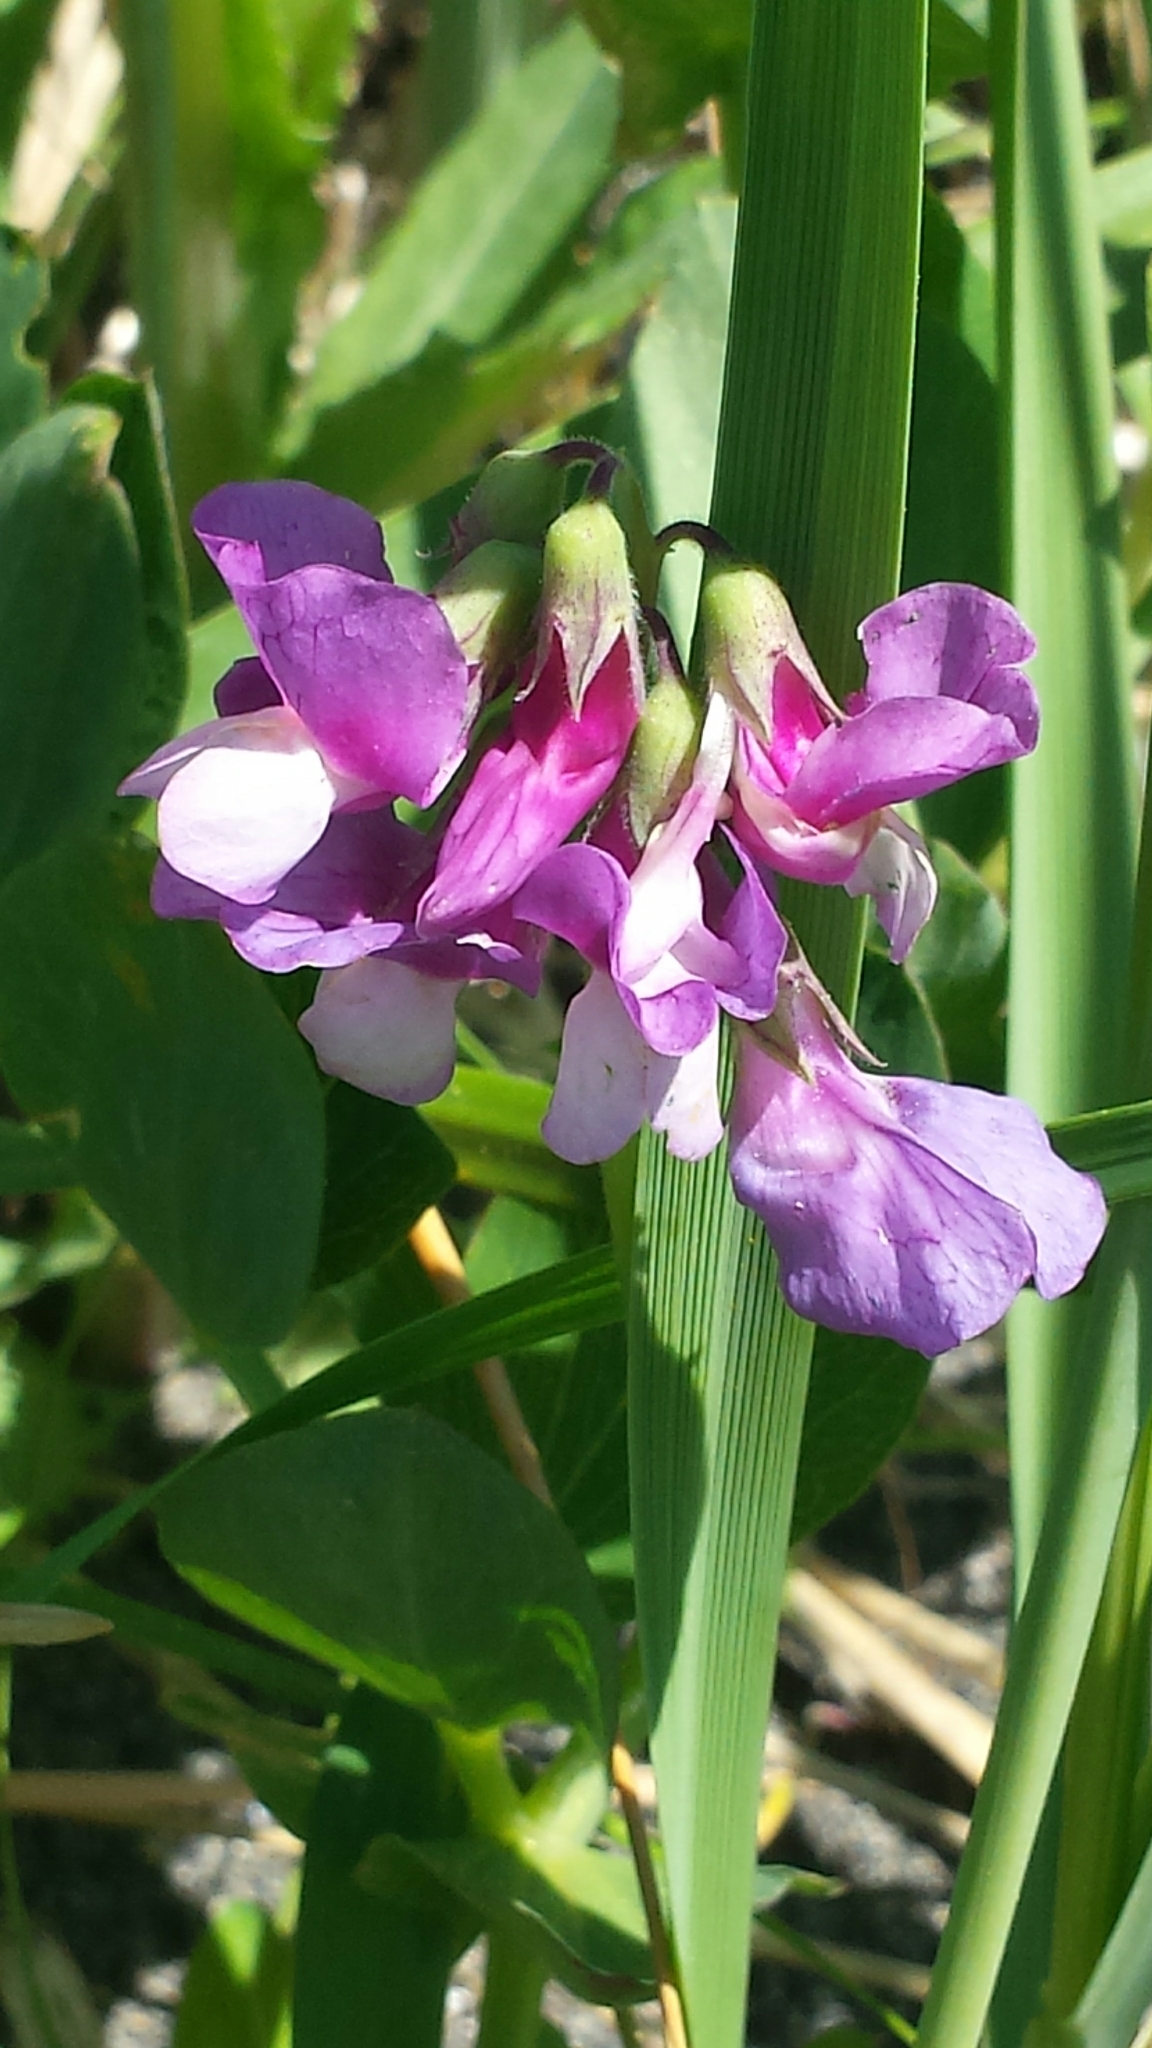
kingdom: Plantae
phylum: Tracheophyta
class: Magnoliopsida
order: Fabales
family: Fabaceae
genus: Lathyrus
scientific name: Lathyrus japonicus
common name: Sea pea
